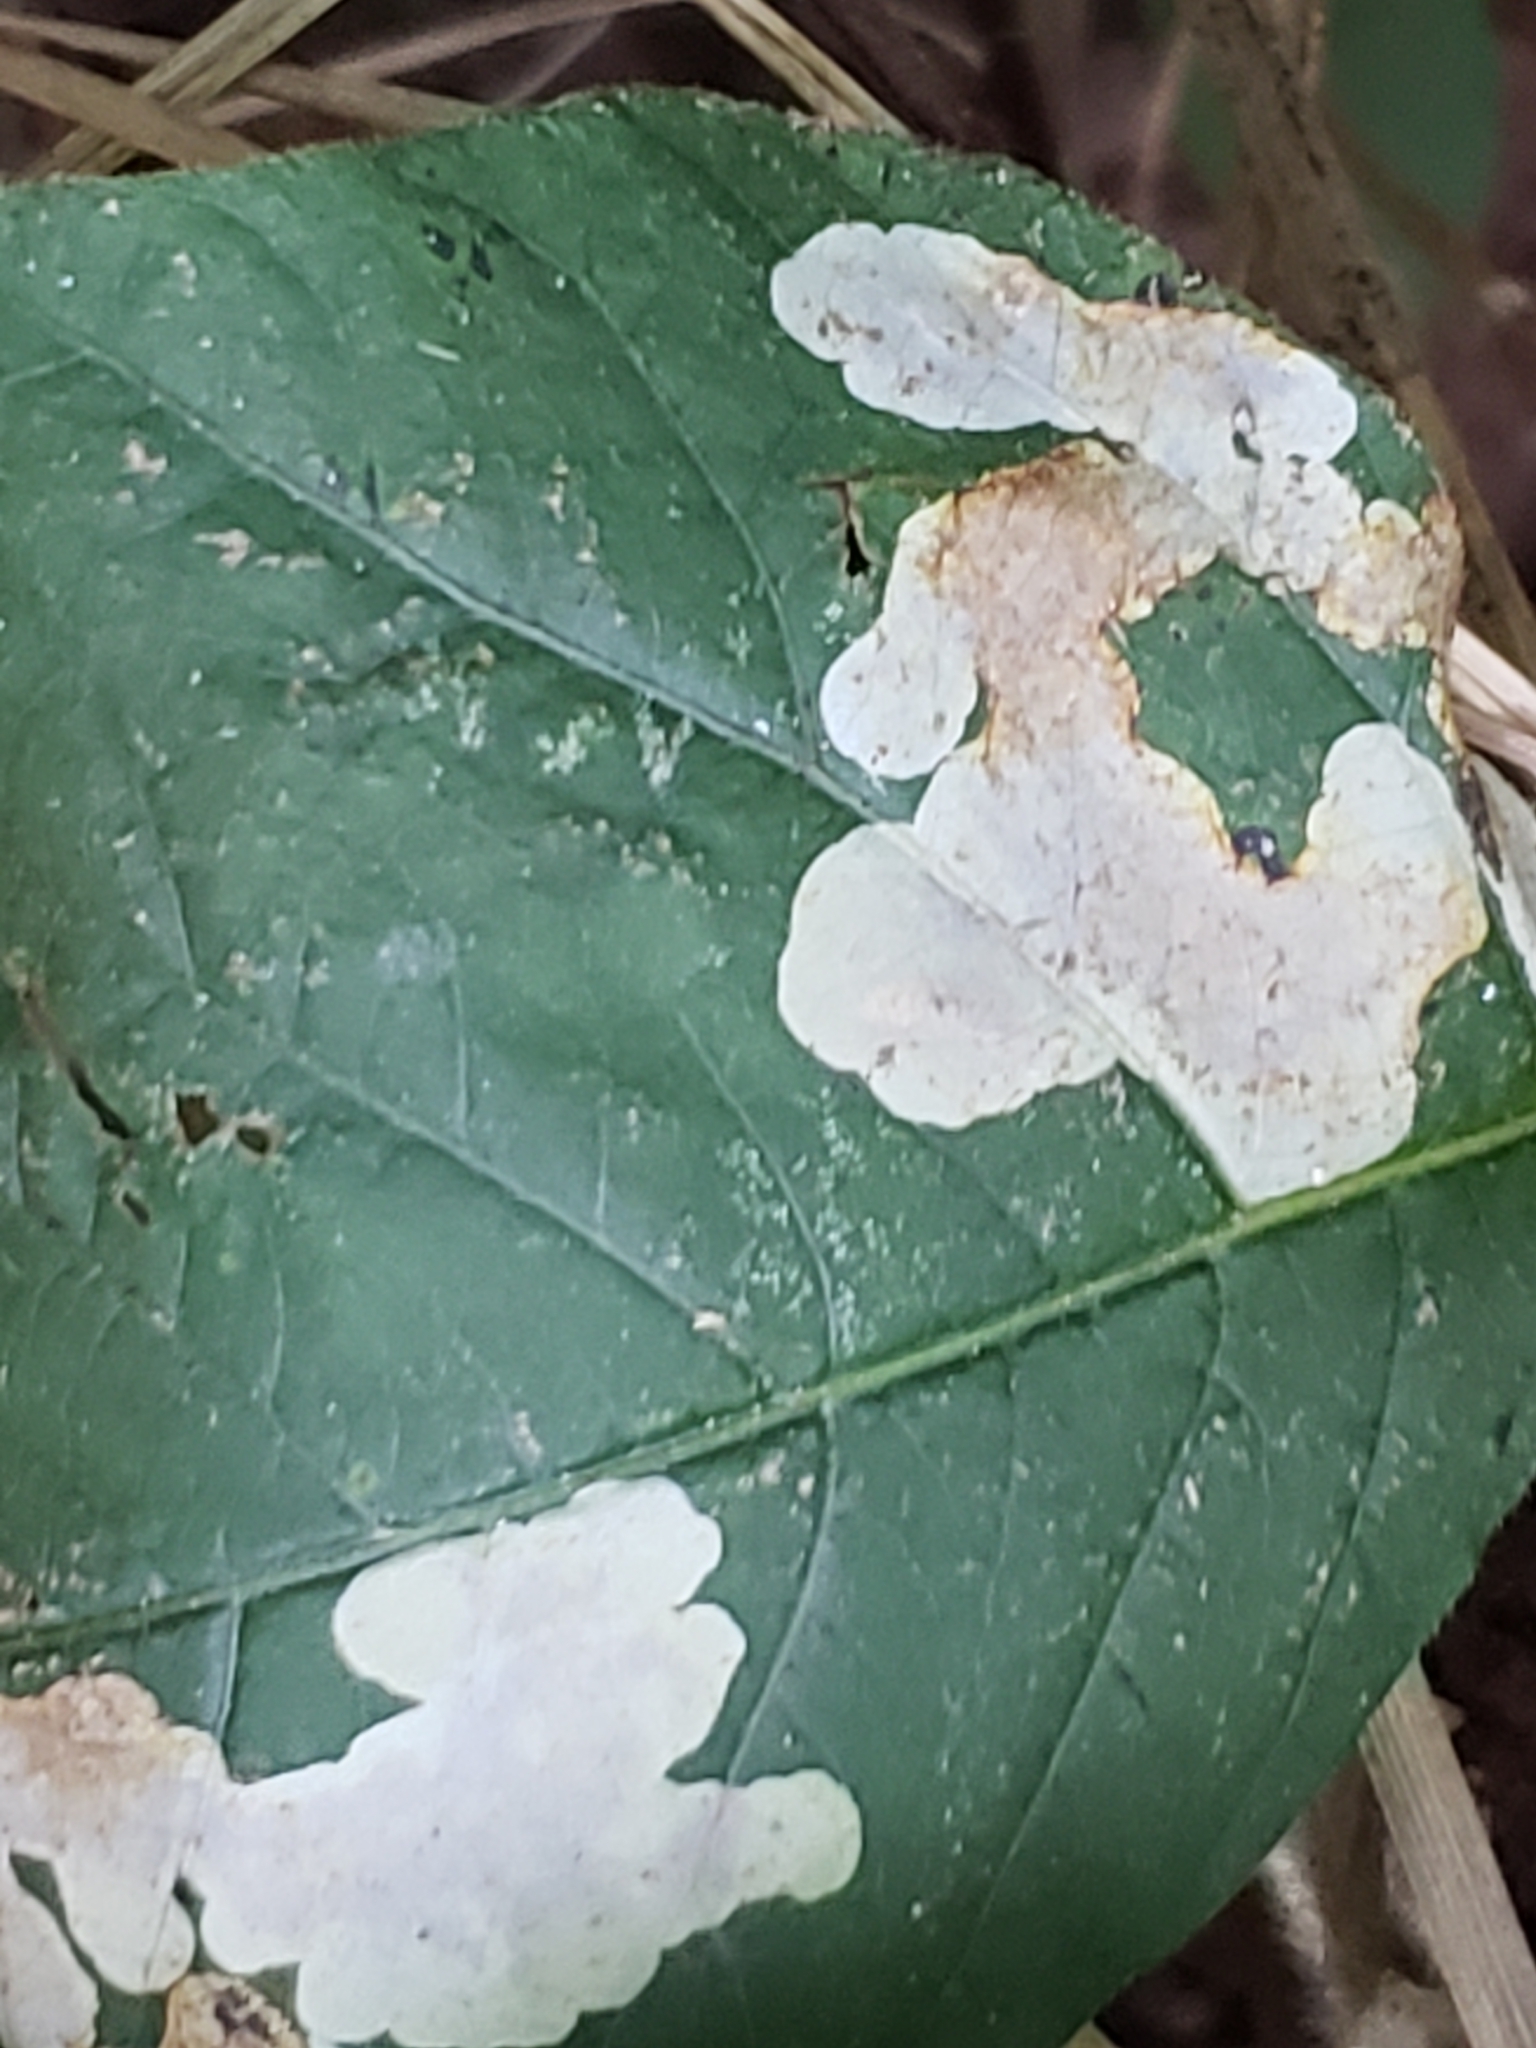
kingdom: Animalia
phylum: Arthropoda
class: Insecta
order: Lepidoptera
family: Gracillariidae
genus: Cameraria
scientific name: Cameraria guttifinitella
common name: Poison ivy leaf-miner moth
